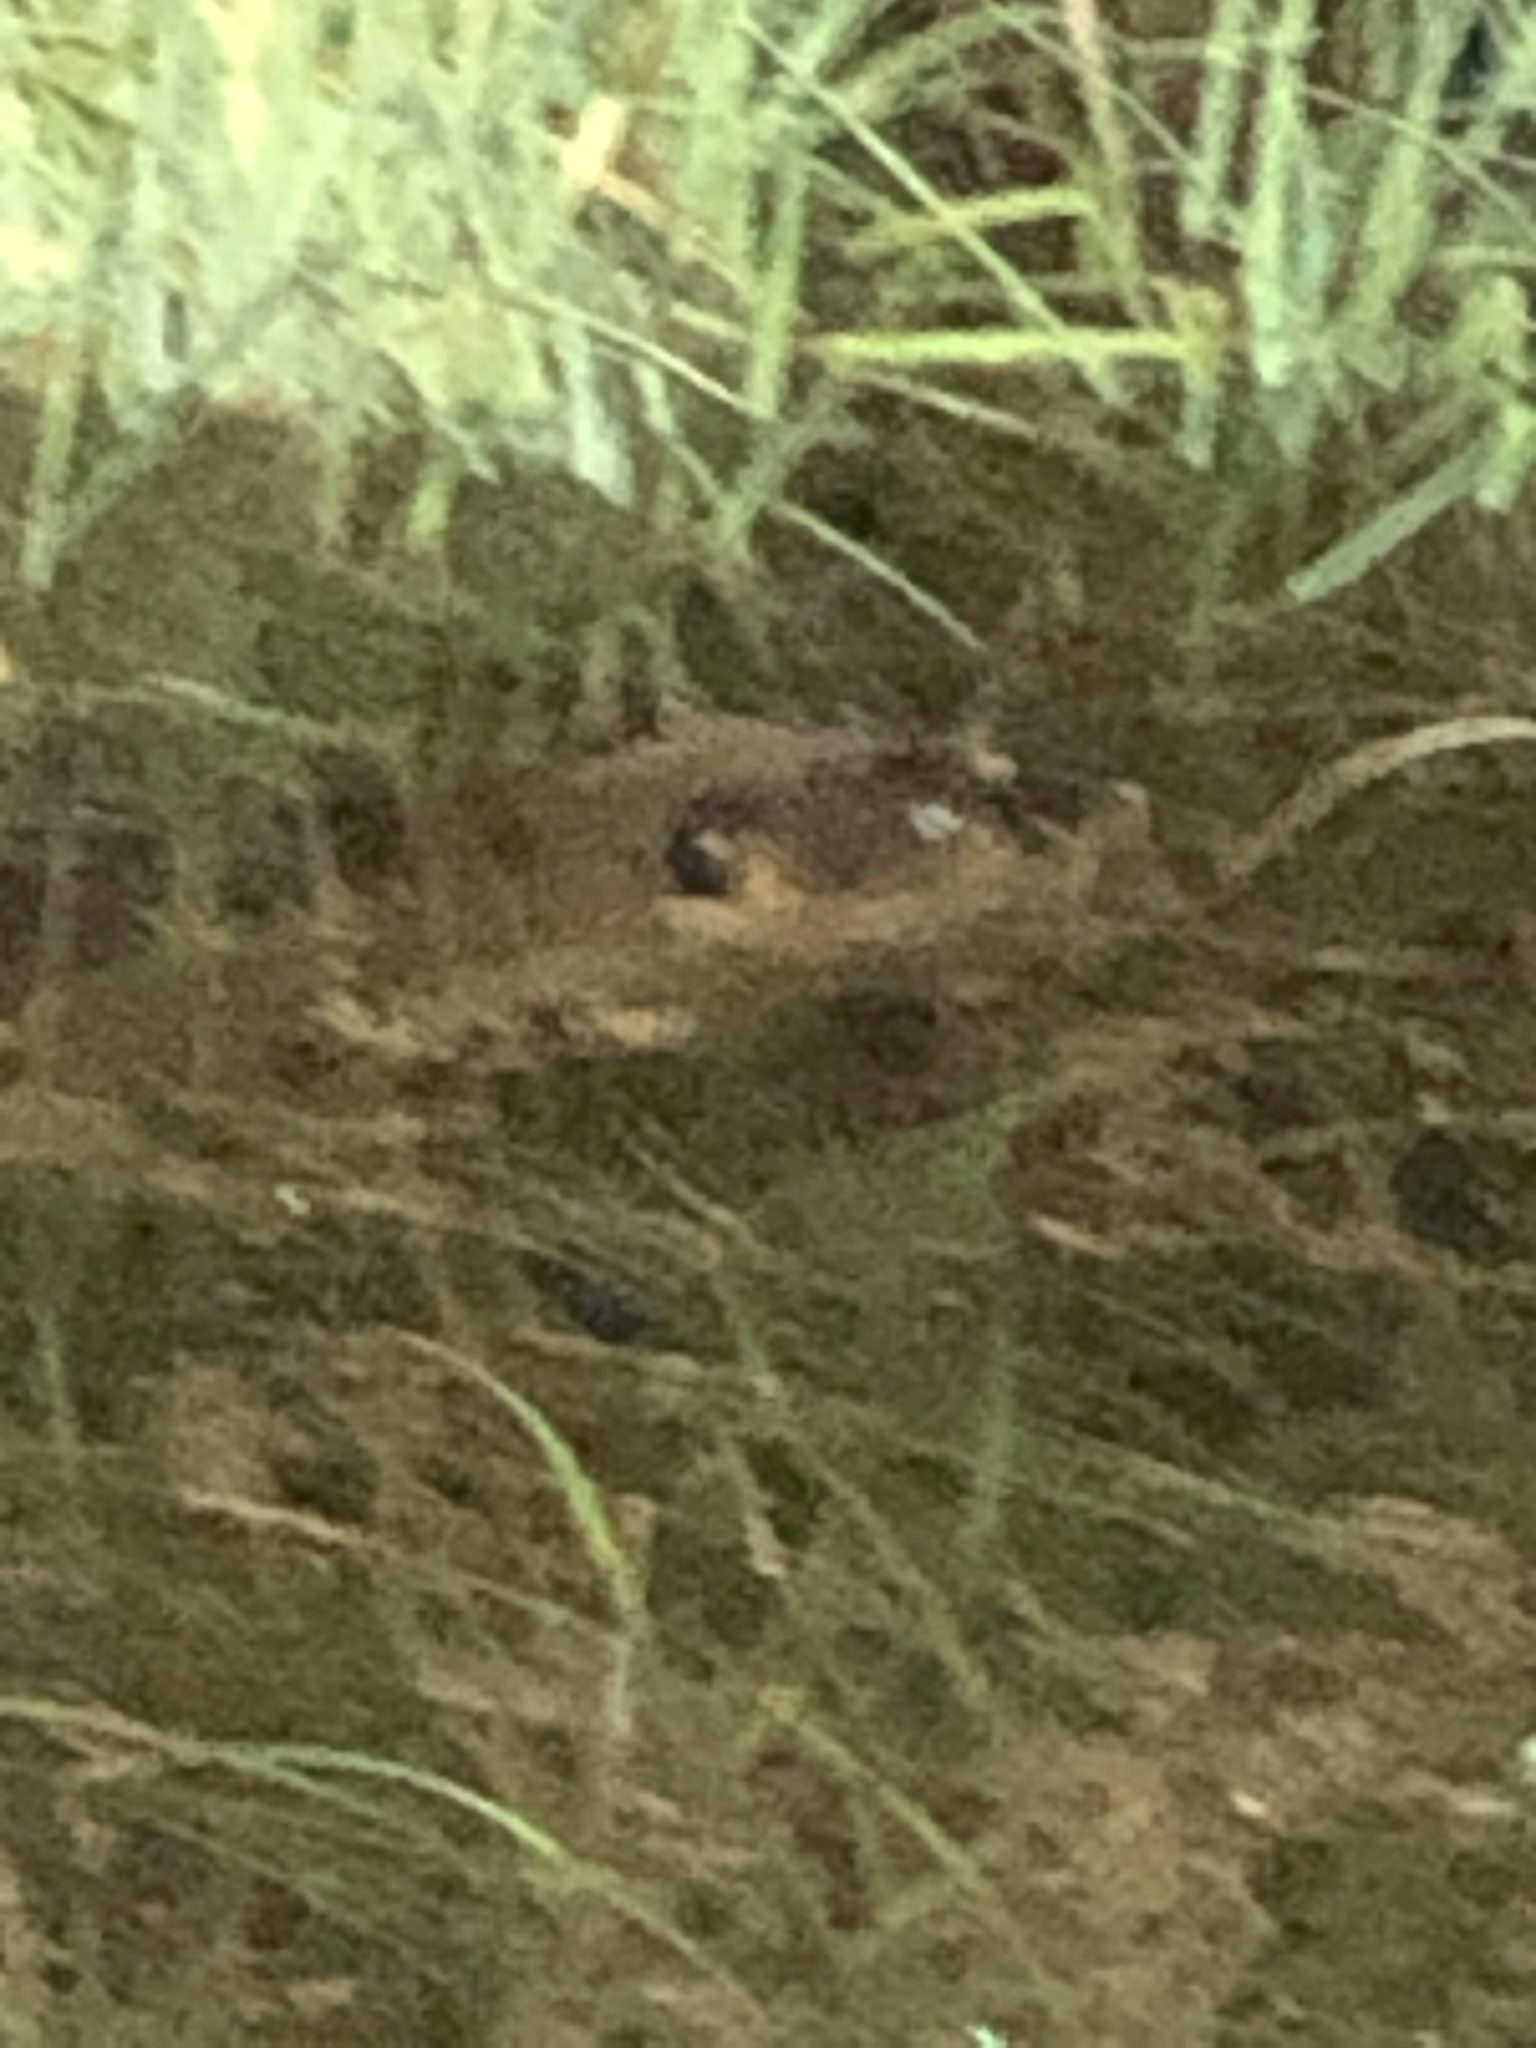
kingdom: Animalia
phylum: Chordata
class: Mammalia
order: Rodentia
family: Castoridae
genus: Castor
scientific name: Castor canadensis
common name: American beaver
